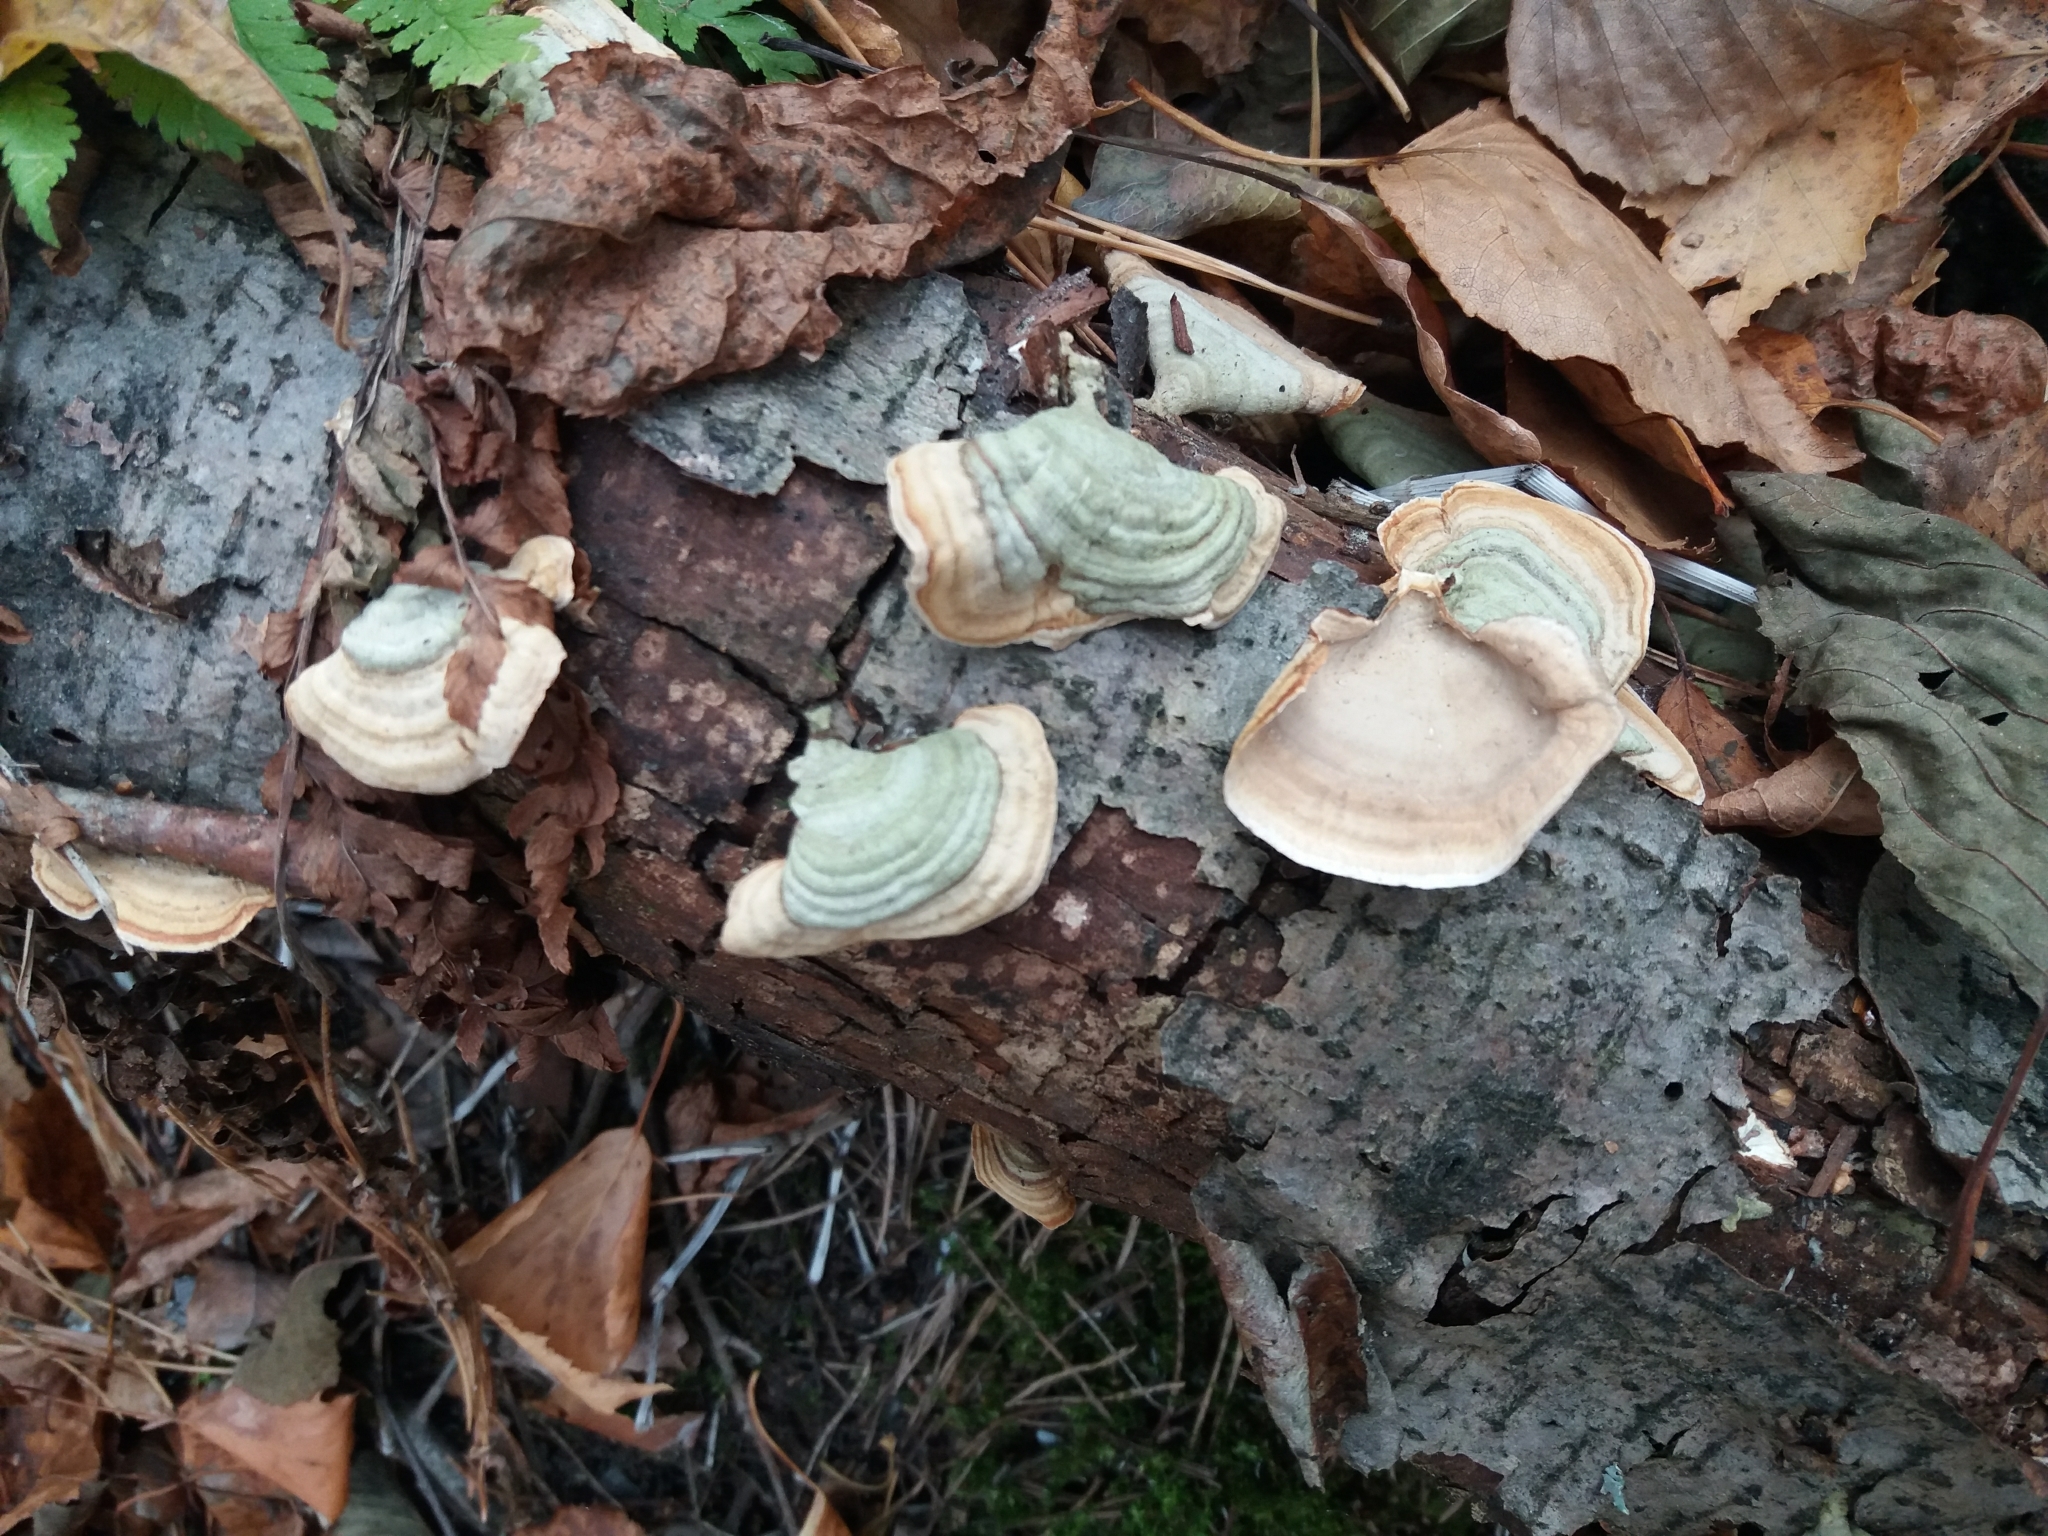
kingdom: Fungi
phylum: Basidiomycota
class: Agaricomycetes
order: Russulales
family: Stereaceae
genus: Stereum
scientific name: Stereum ostrea
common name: False turkeytail
